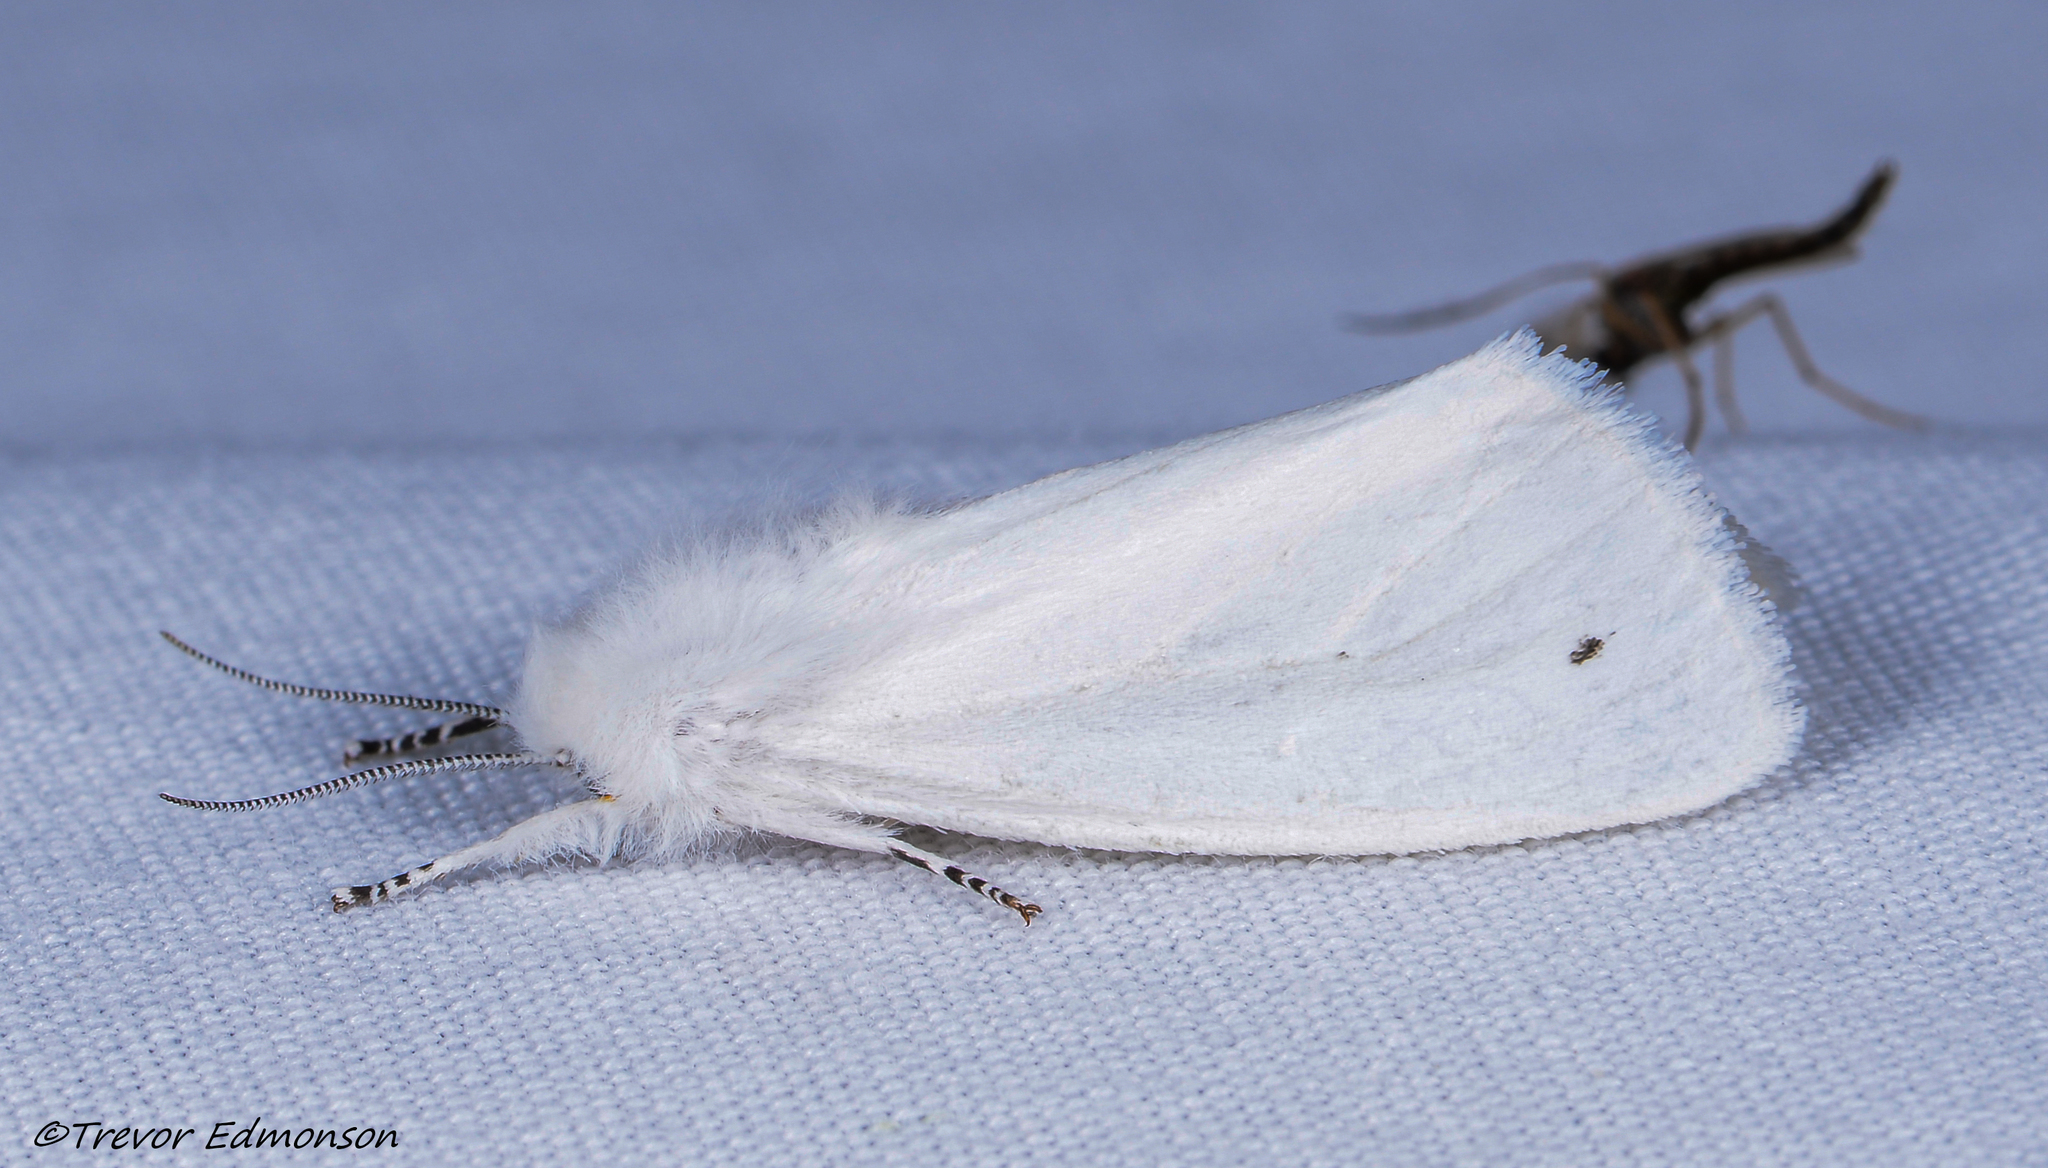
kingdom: Animalia
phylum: Arthropoda
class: Insecta
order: Lepidoptera
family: Erebidae
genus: Spilosoma
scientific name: Spilosoma virginica
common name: Virginia tiger moth
